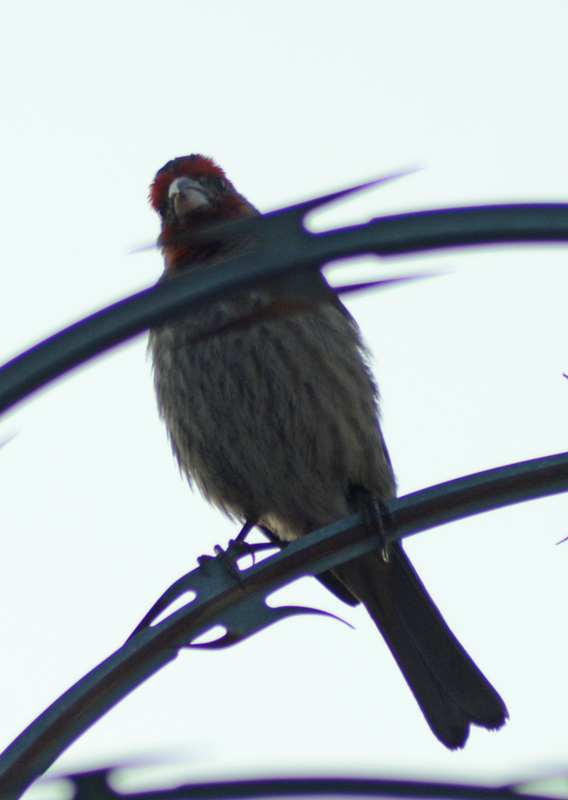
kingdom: Animalia
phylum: Chordata
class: Aves
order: Passeriformes
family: Fringillidae
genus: Haemorhous
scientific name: Haemorhous mexicanus
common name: House finch
